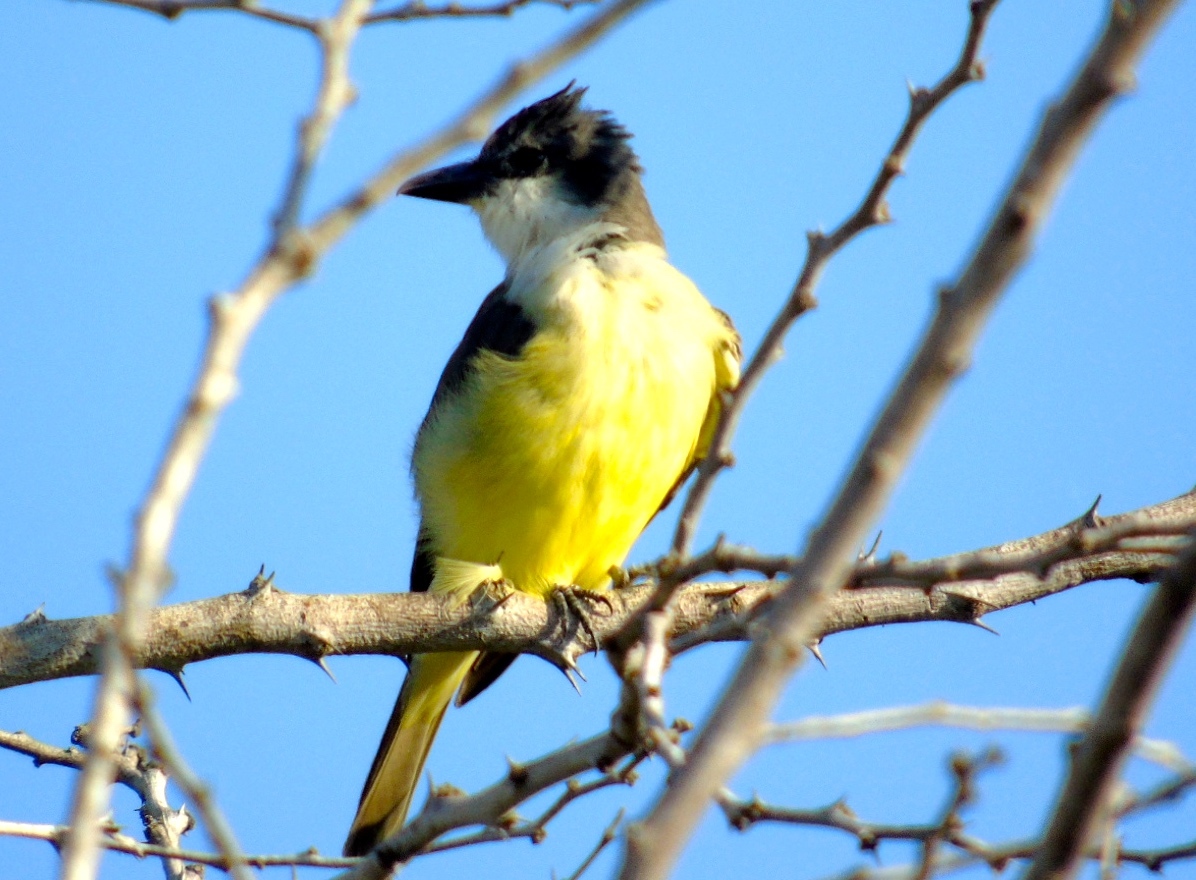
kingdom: Animalia
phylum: Chordata
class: Aves
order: Passeriformes
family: Tyrannidae
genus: Tyrannus
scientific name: Tyrannus crassirostris
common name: Thick-billed kingbird
